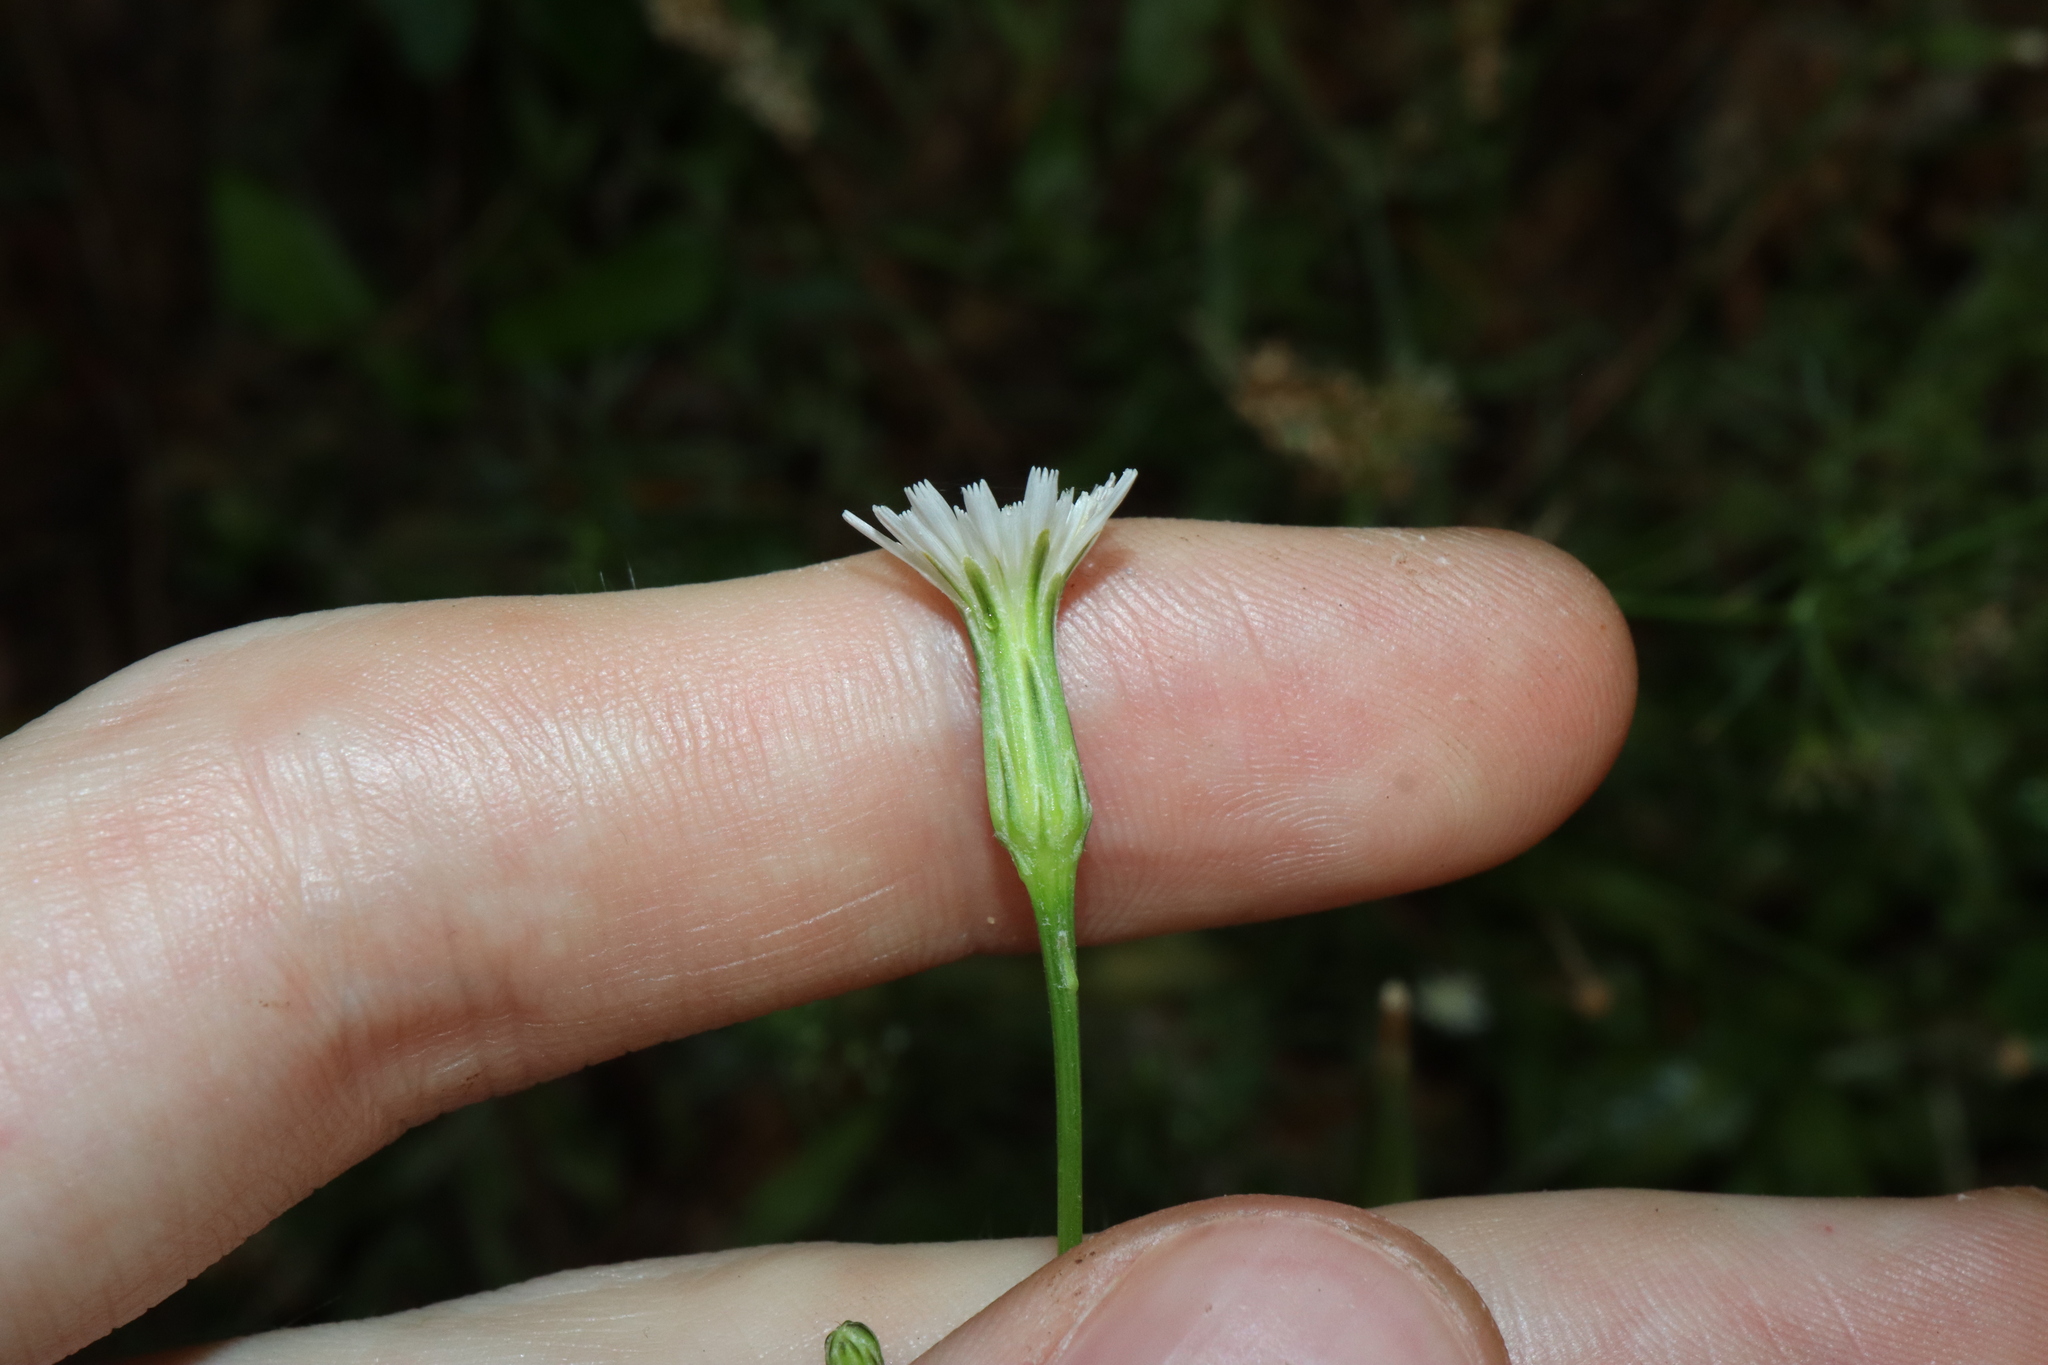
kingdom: Plantae
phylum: Tracheophyta
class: Magnoliopsida
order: Asterales
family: Asteraceae
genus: Hypochaeris
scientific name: Hypochaeris albiflora
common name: White flatweed
